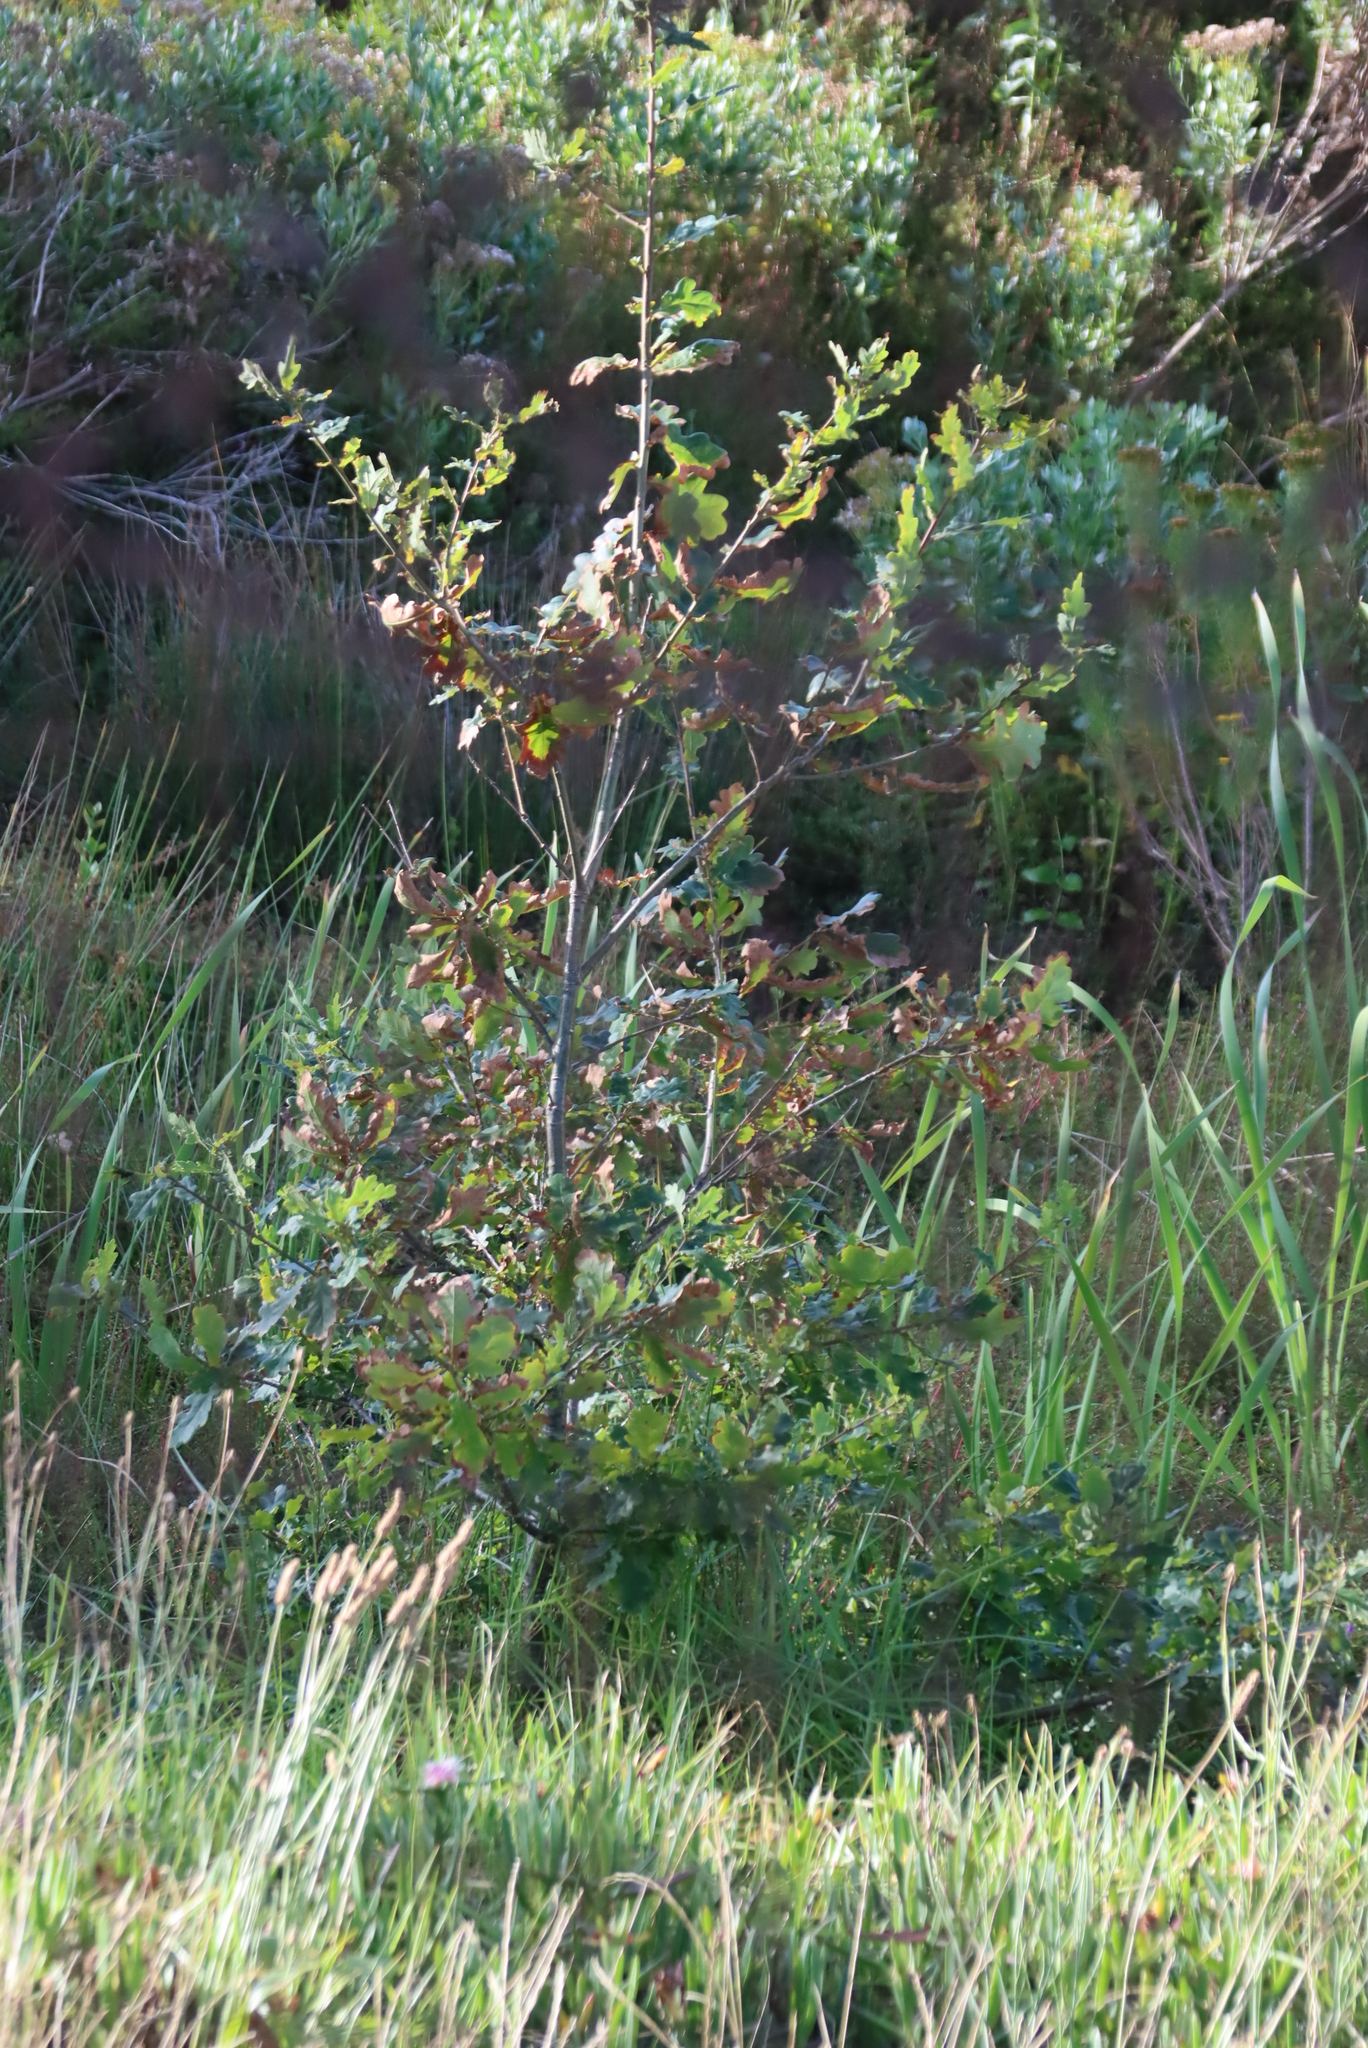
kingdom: Plantae
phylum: Tracheophyta
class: Magnoliopsida
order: Fagales
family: Fagaceae
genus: Quercus
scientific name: Quercus robur
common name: Pedunculate oak
